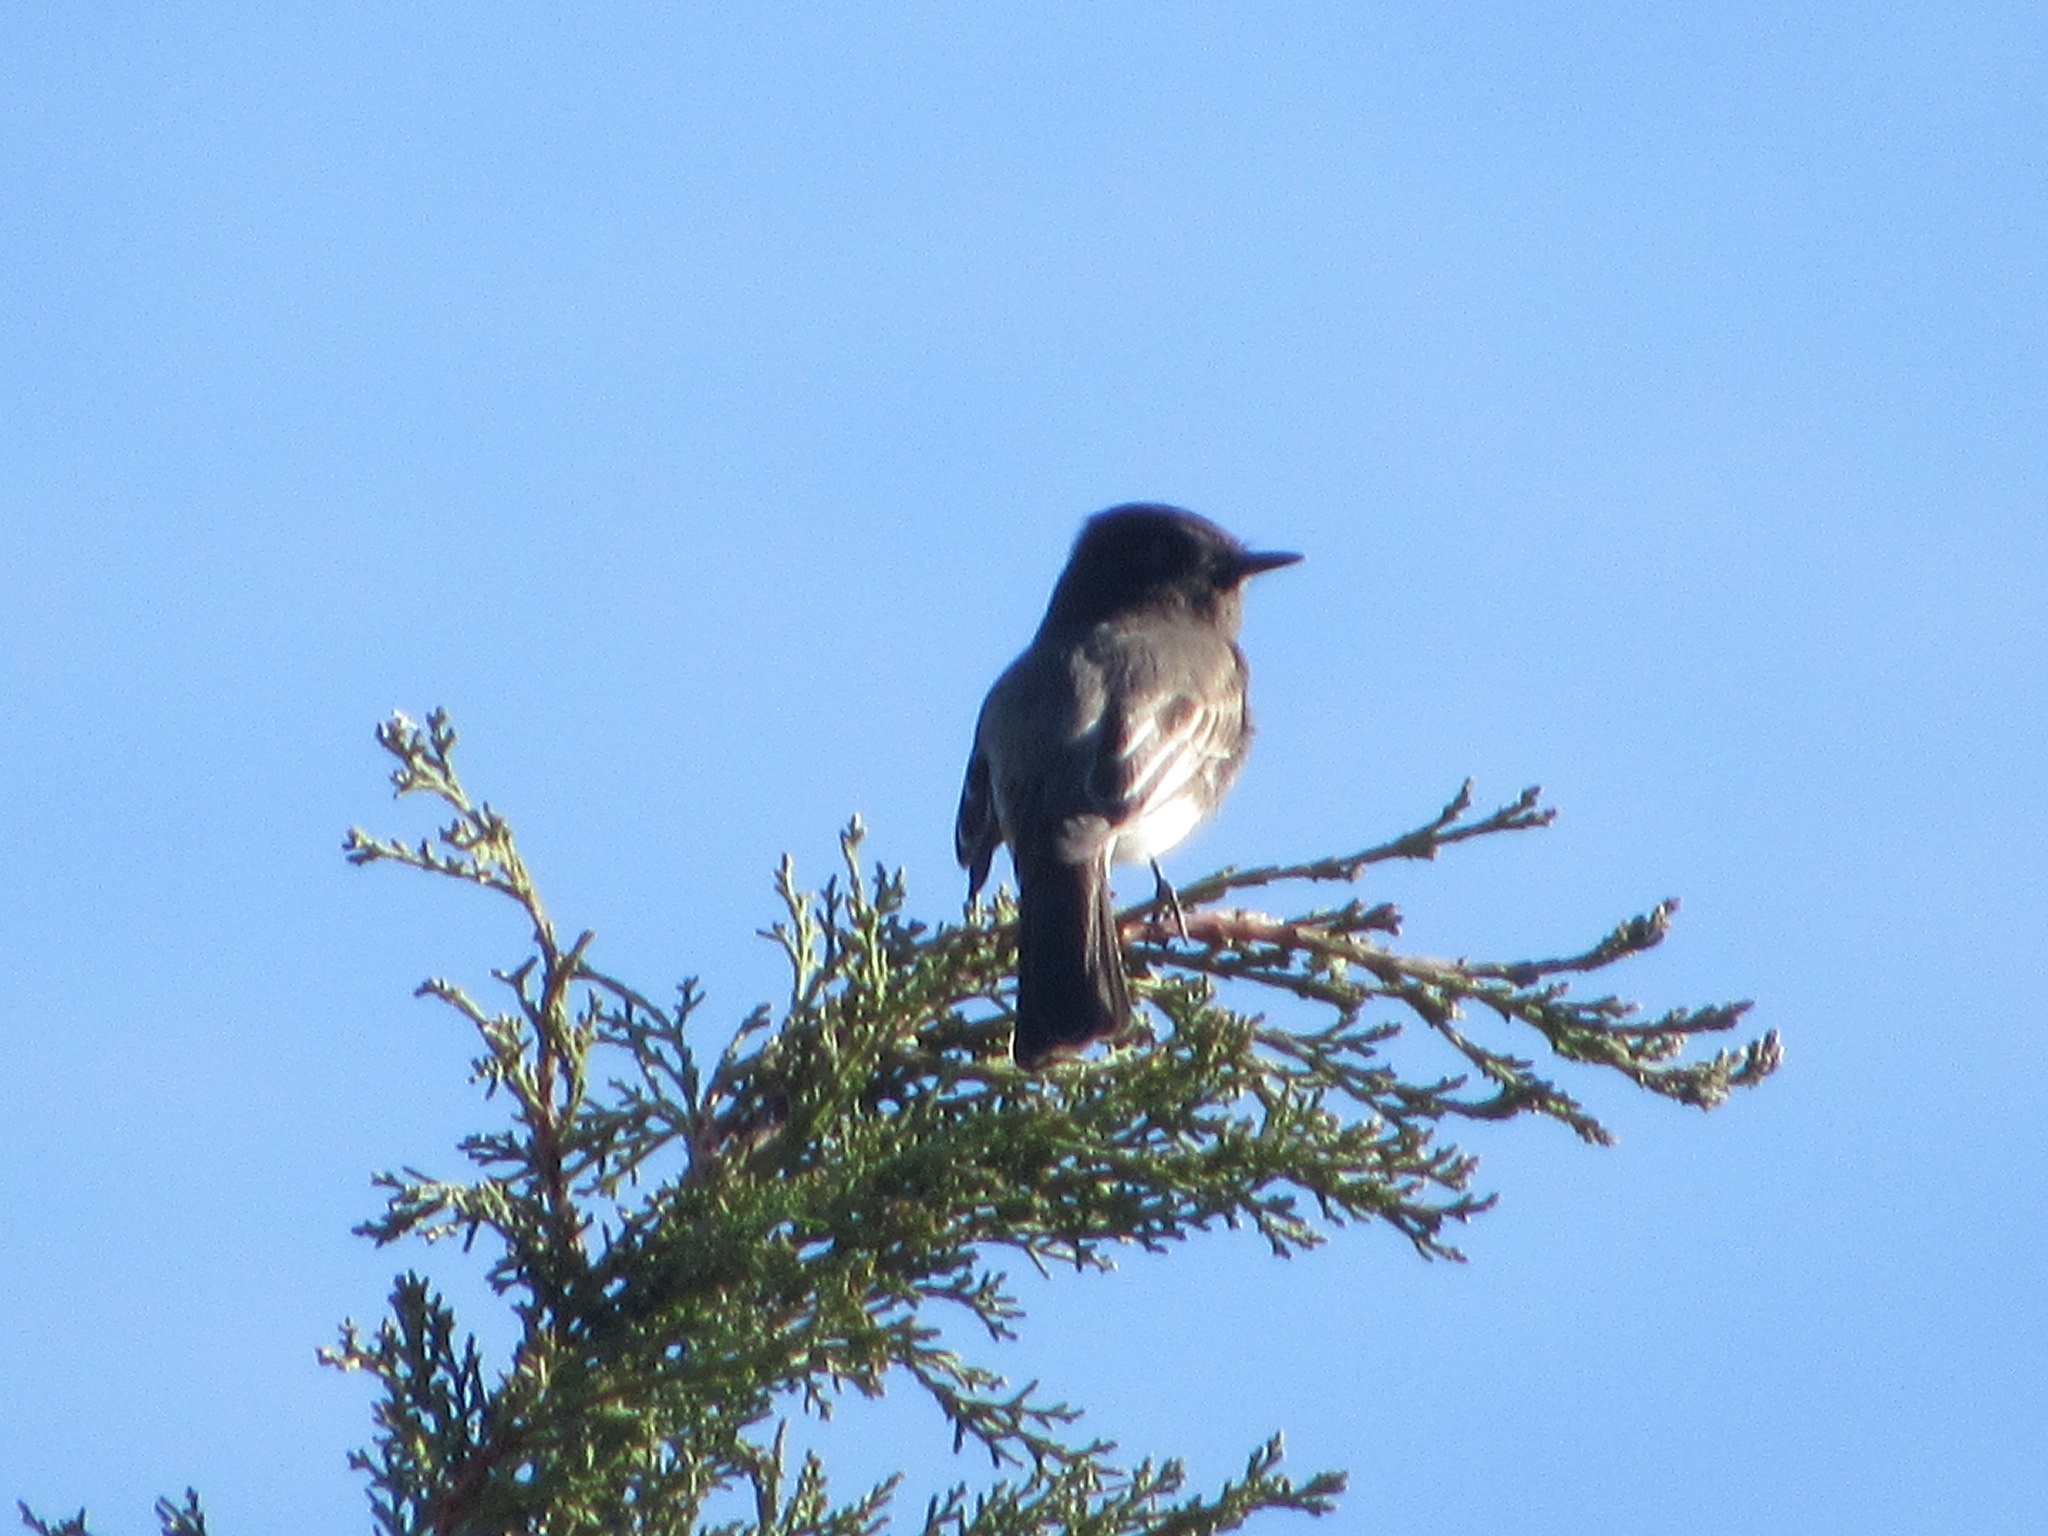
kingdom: Animalia
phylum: Chordata
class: Aves
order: Passeriformes
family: Tyrannidae
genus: Sayornis
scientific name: Sayornis nigricans
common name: Black phoebe
